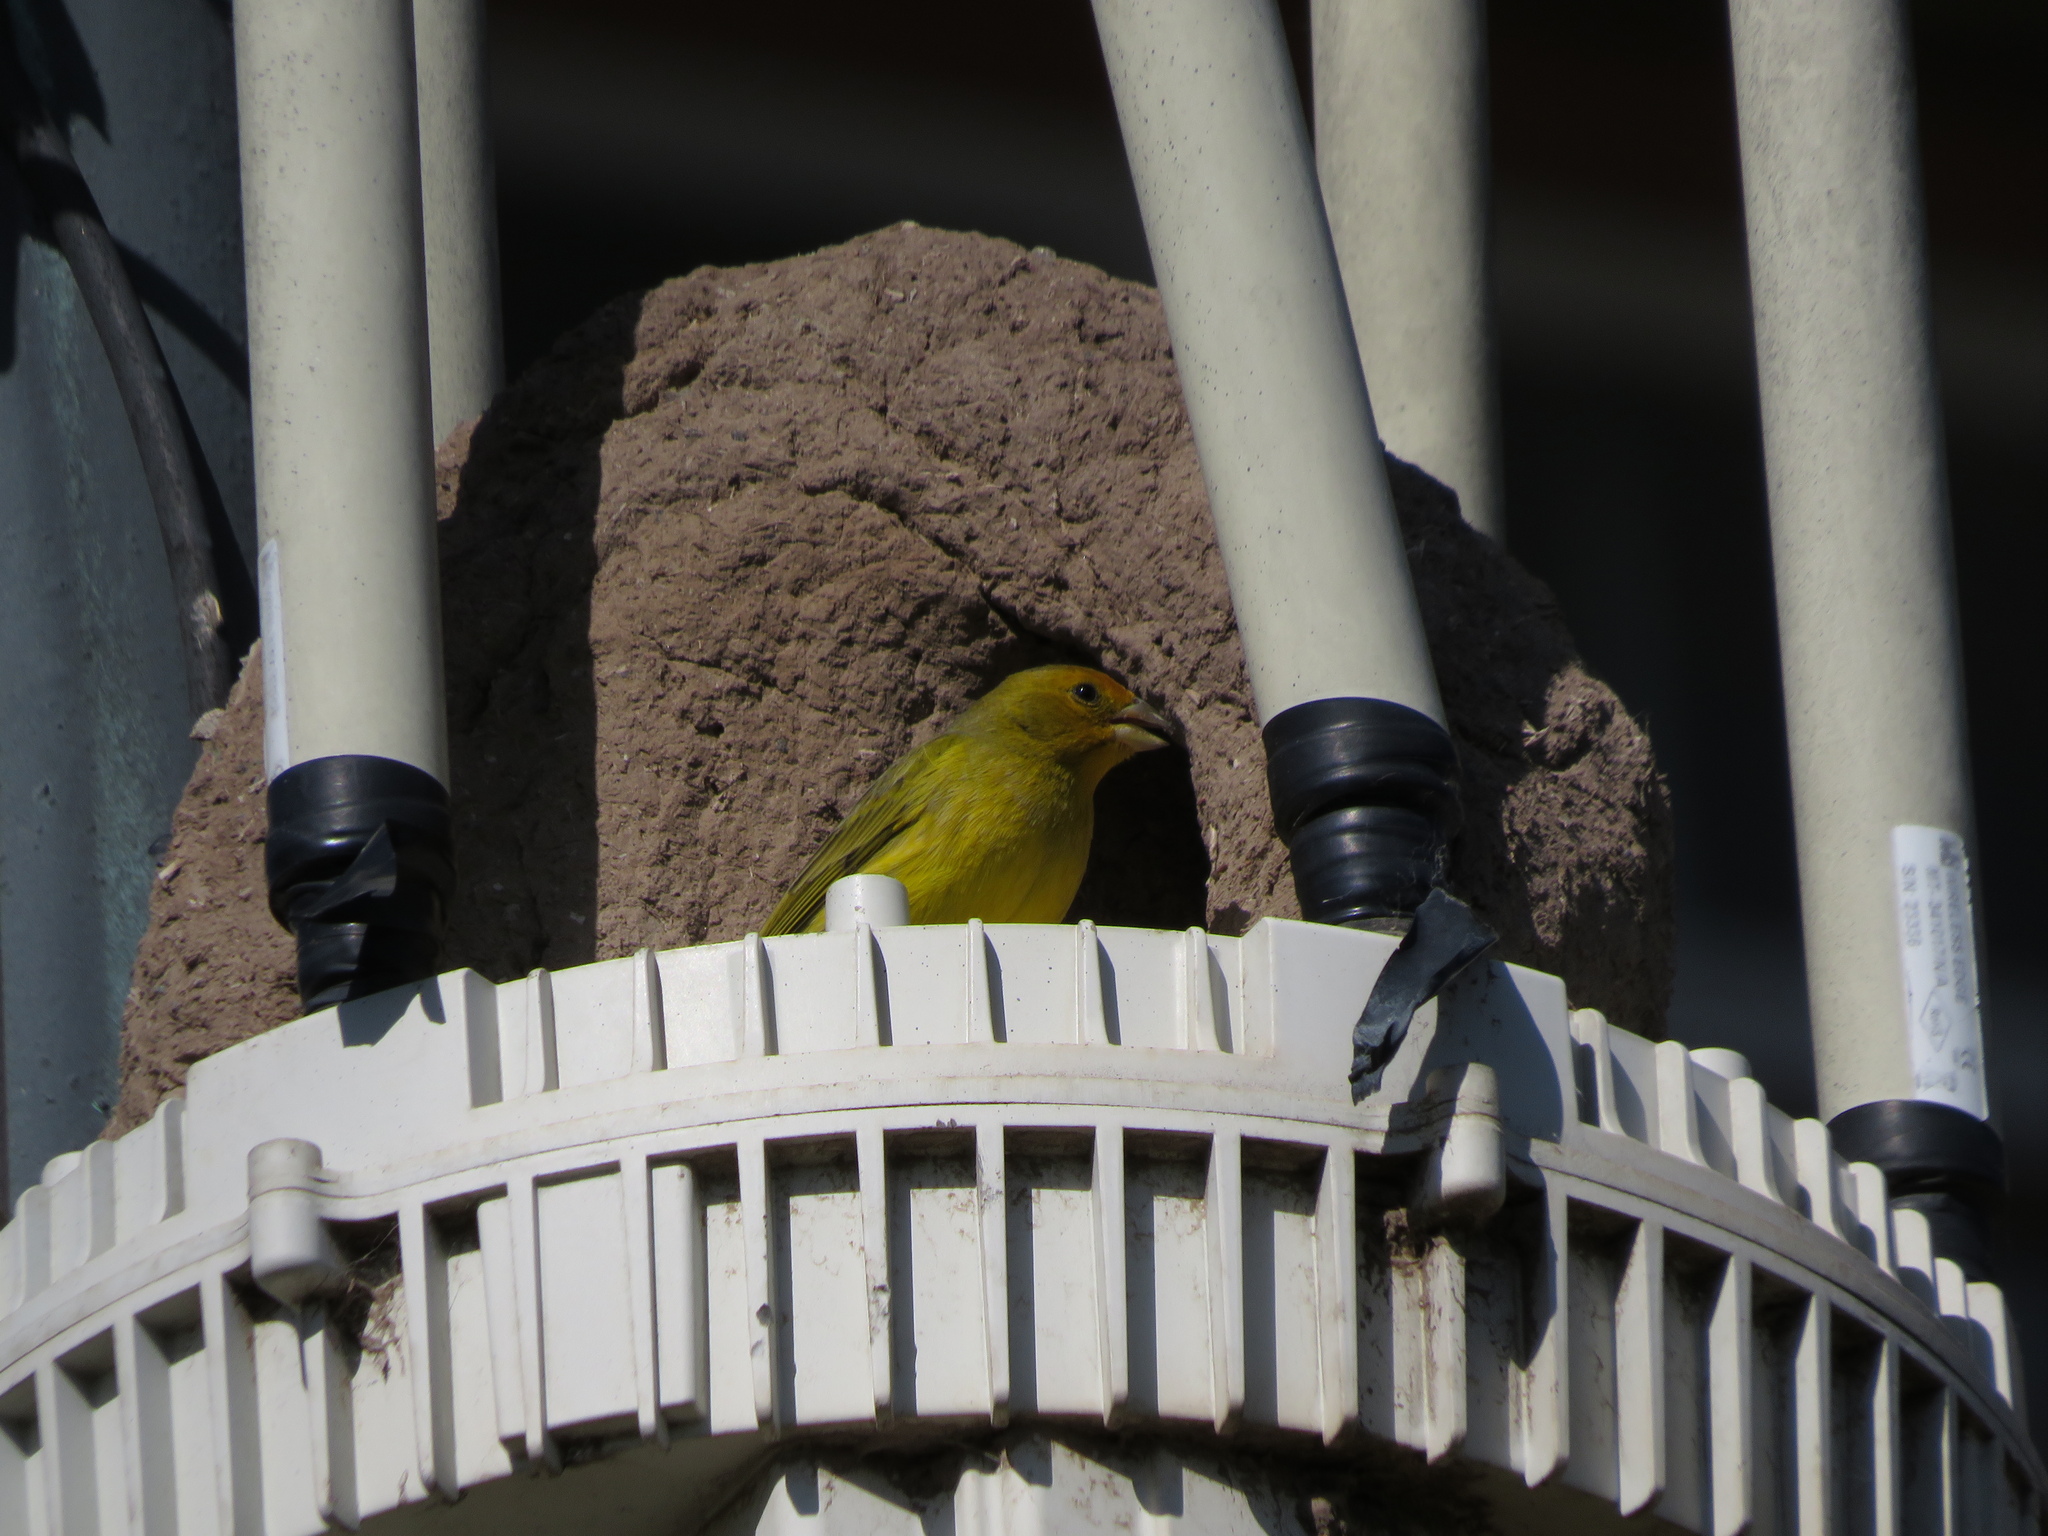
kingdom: Animalia
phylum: Chordata
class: Aves
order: Passeriformes
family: Thraupidae
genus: Sicalis
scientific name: Sicalis flaveola
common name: Saffron finch
